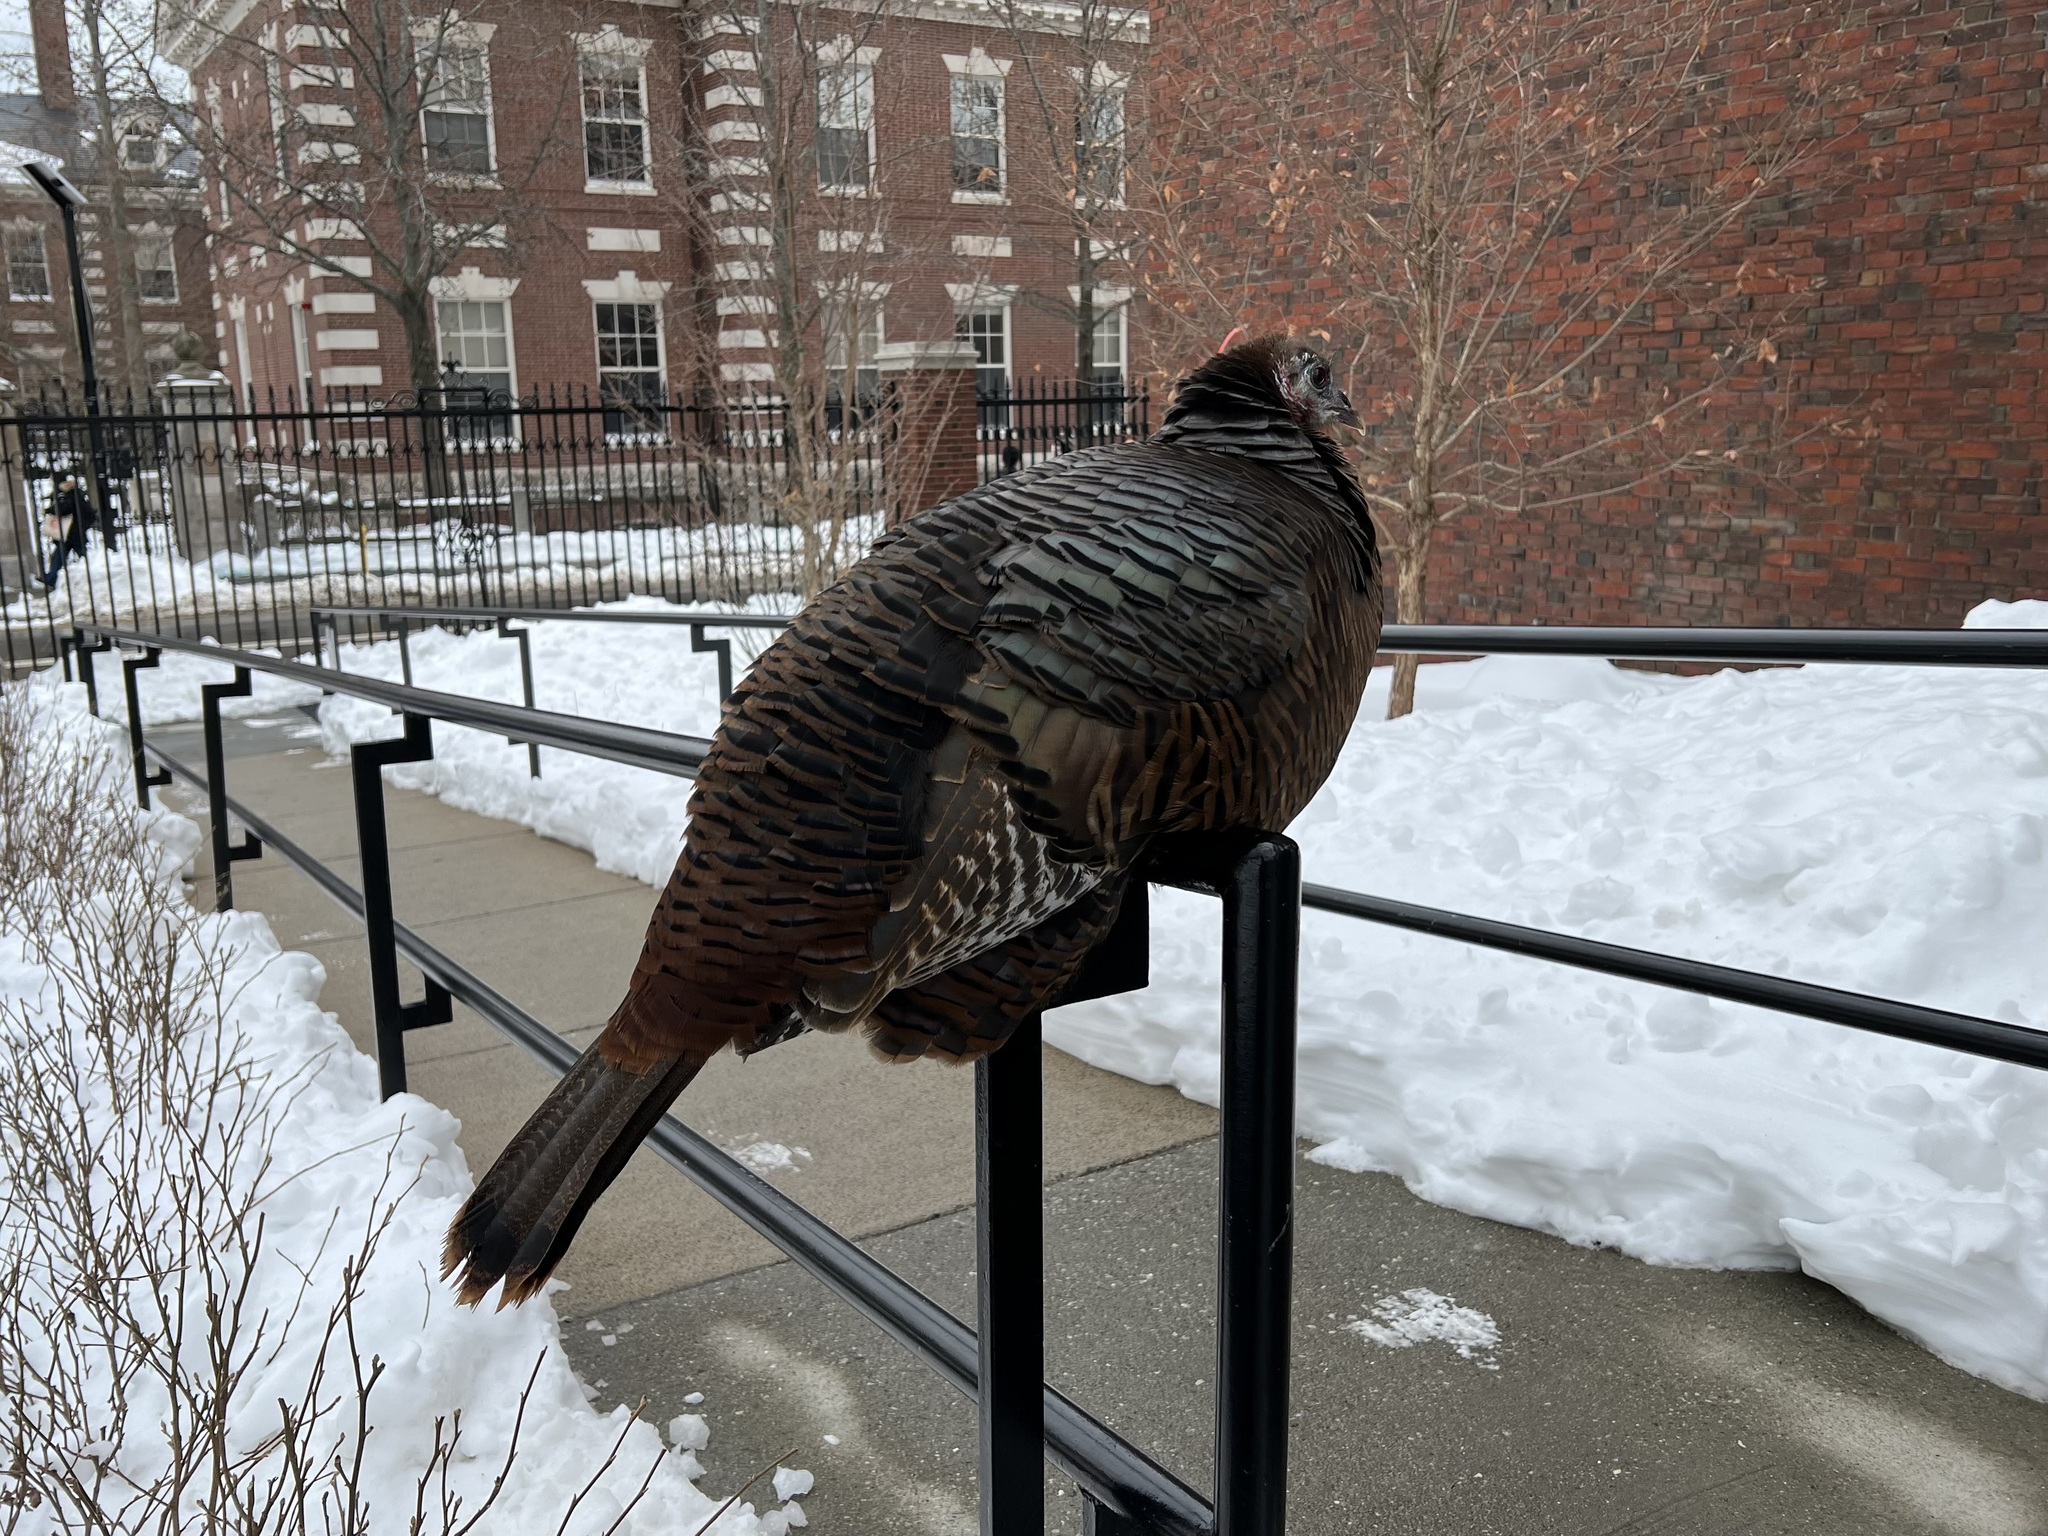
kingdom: Animalia
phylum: Chordata
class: Aves
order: Galliformes
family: Phasianidae
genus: Meleagris
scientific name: Meleagris gallopavo
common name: Wild turkey
